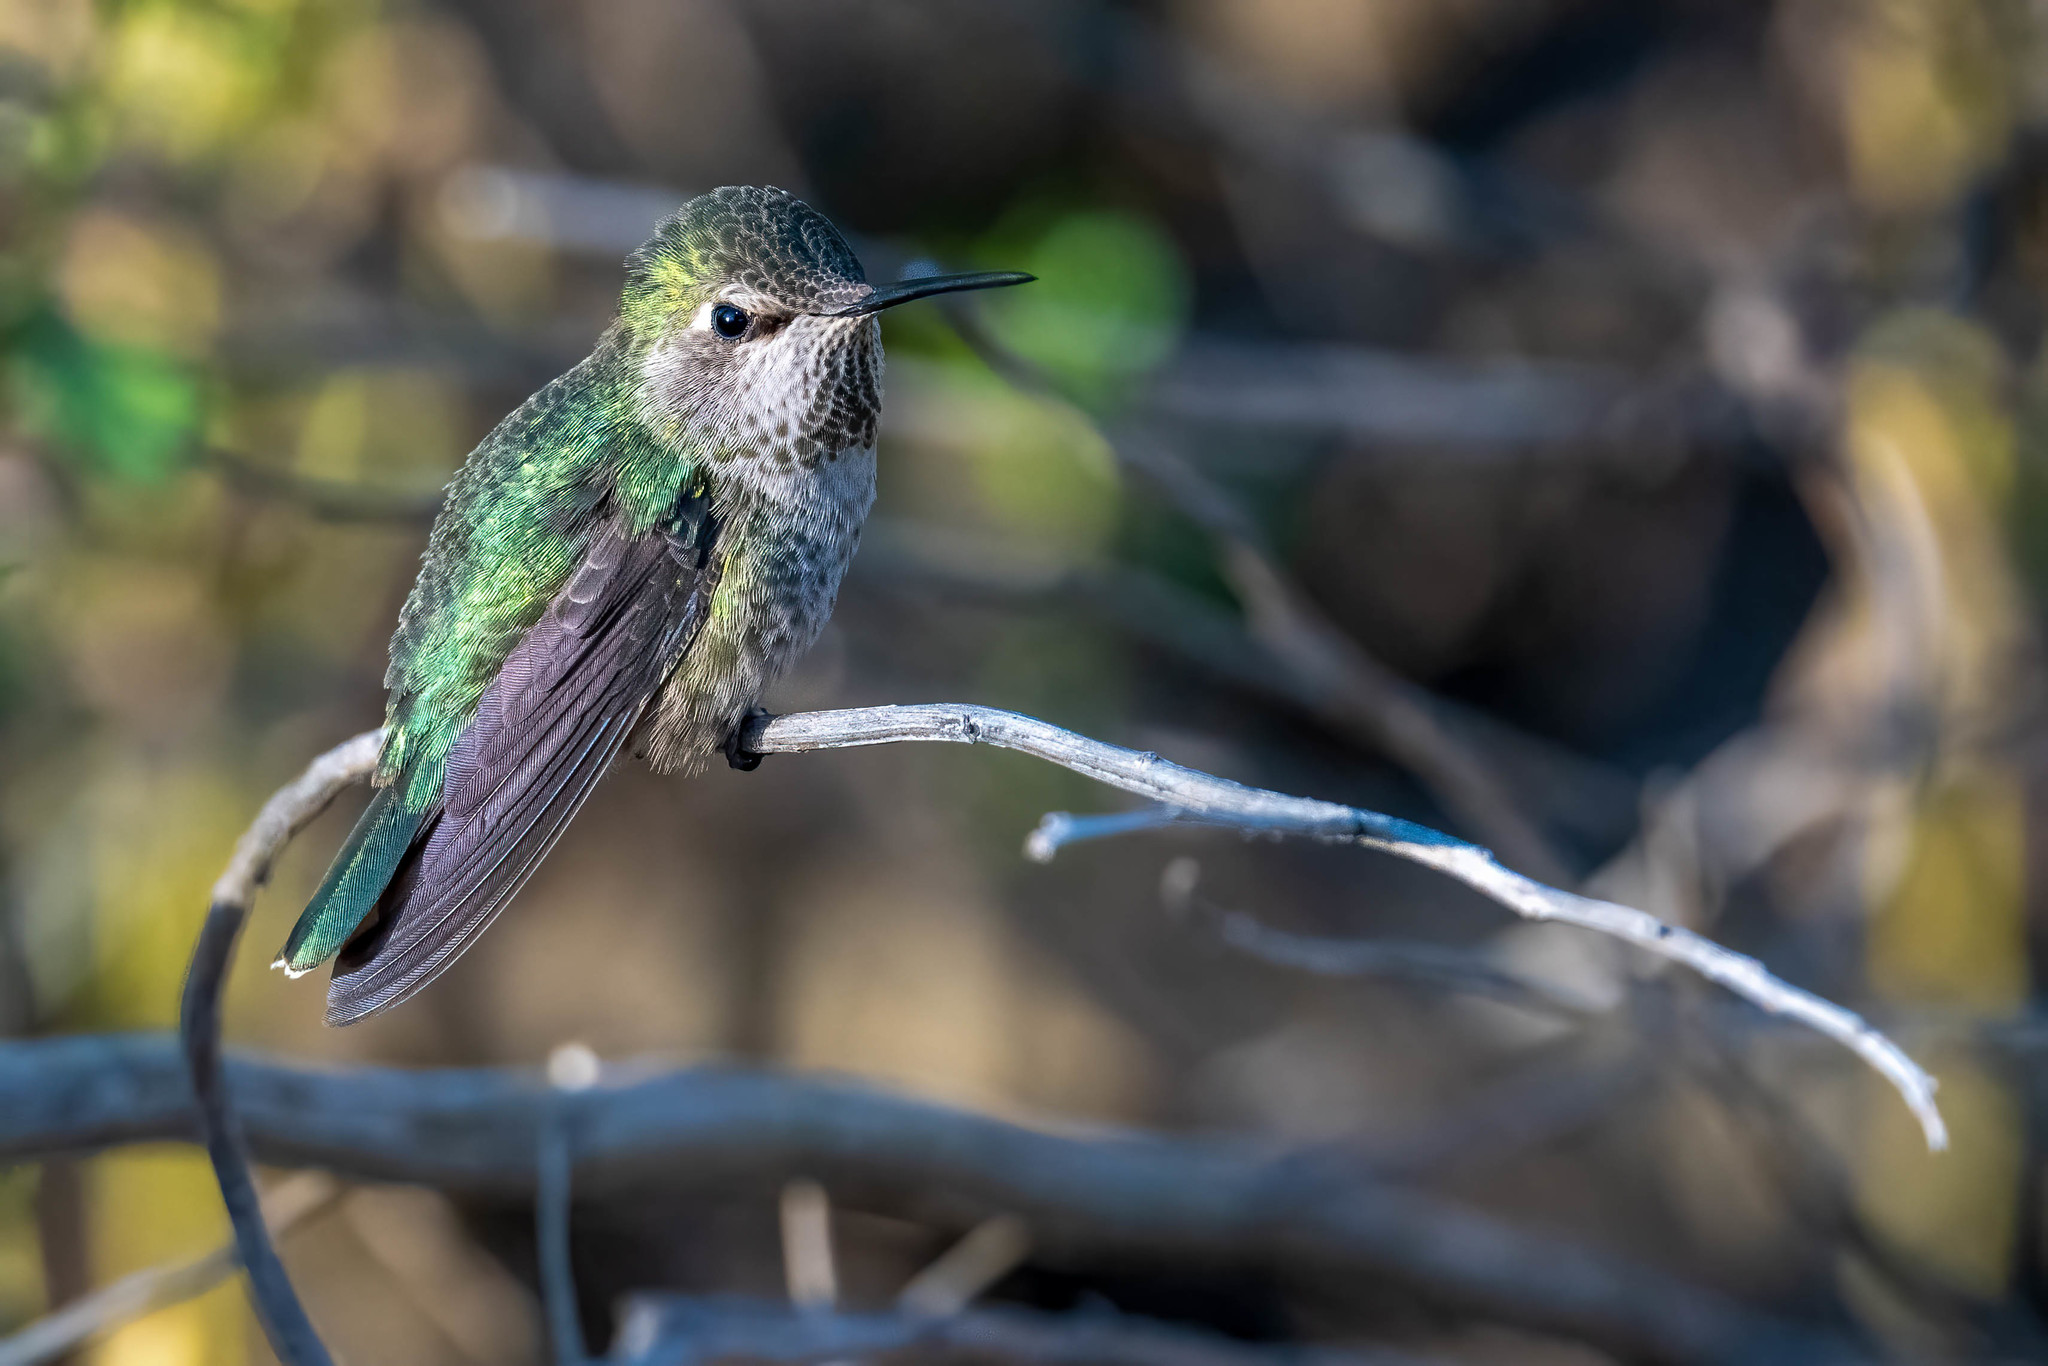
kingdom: Animalia
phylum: Chordata
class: Aves
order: Apodiformes
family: Trochilidae
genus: Calypte
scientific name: Calypte anna
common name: Anna's hummingbird
